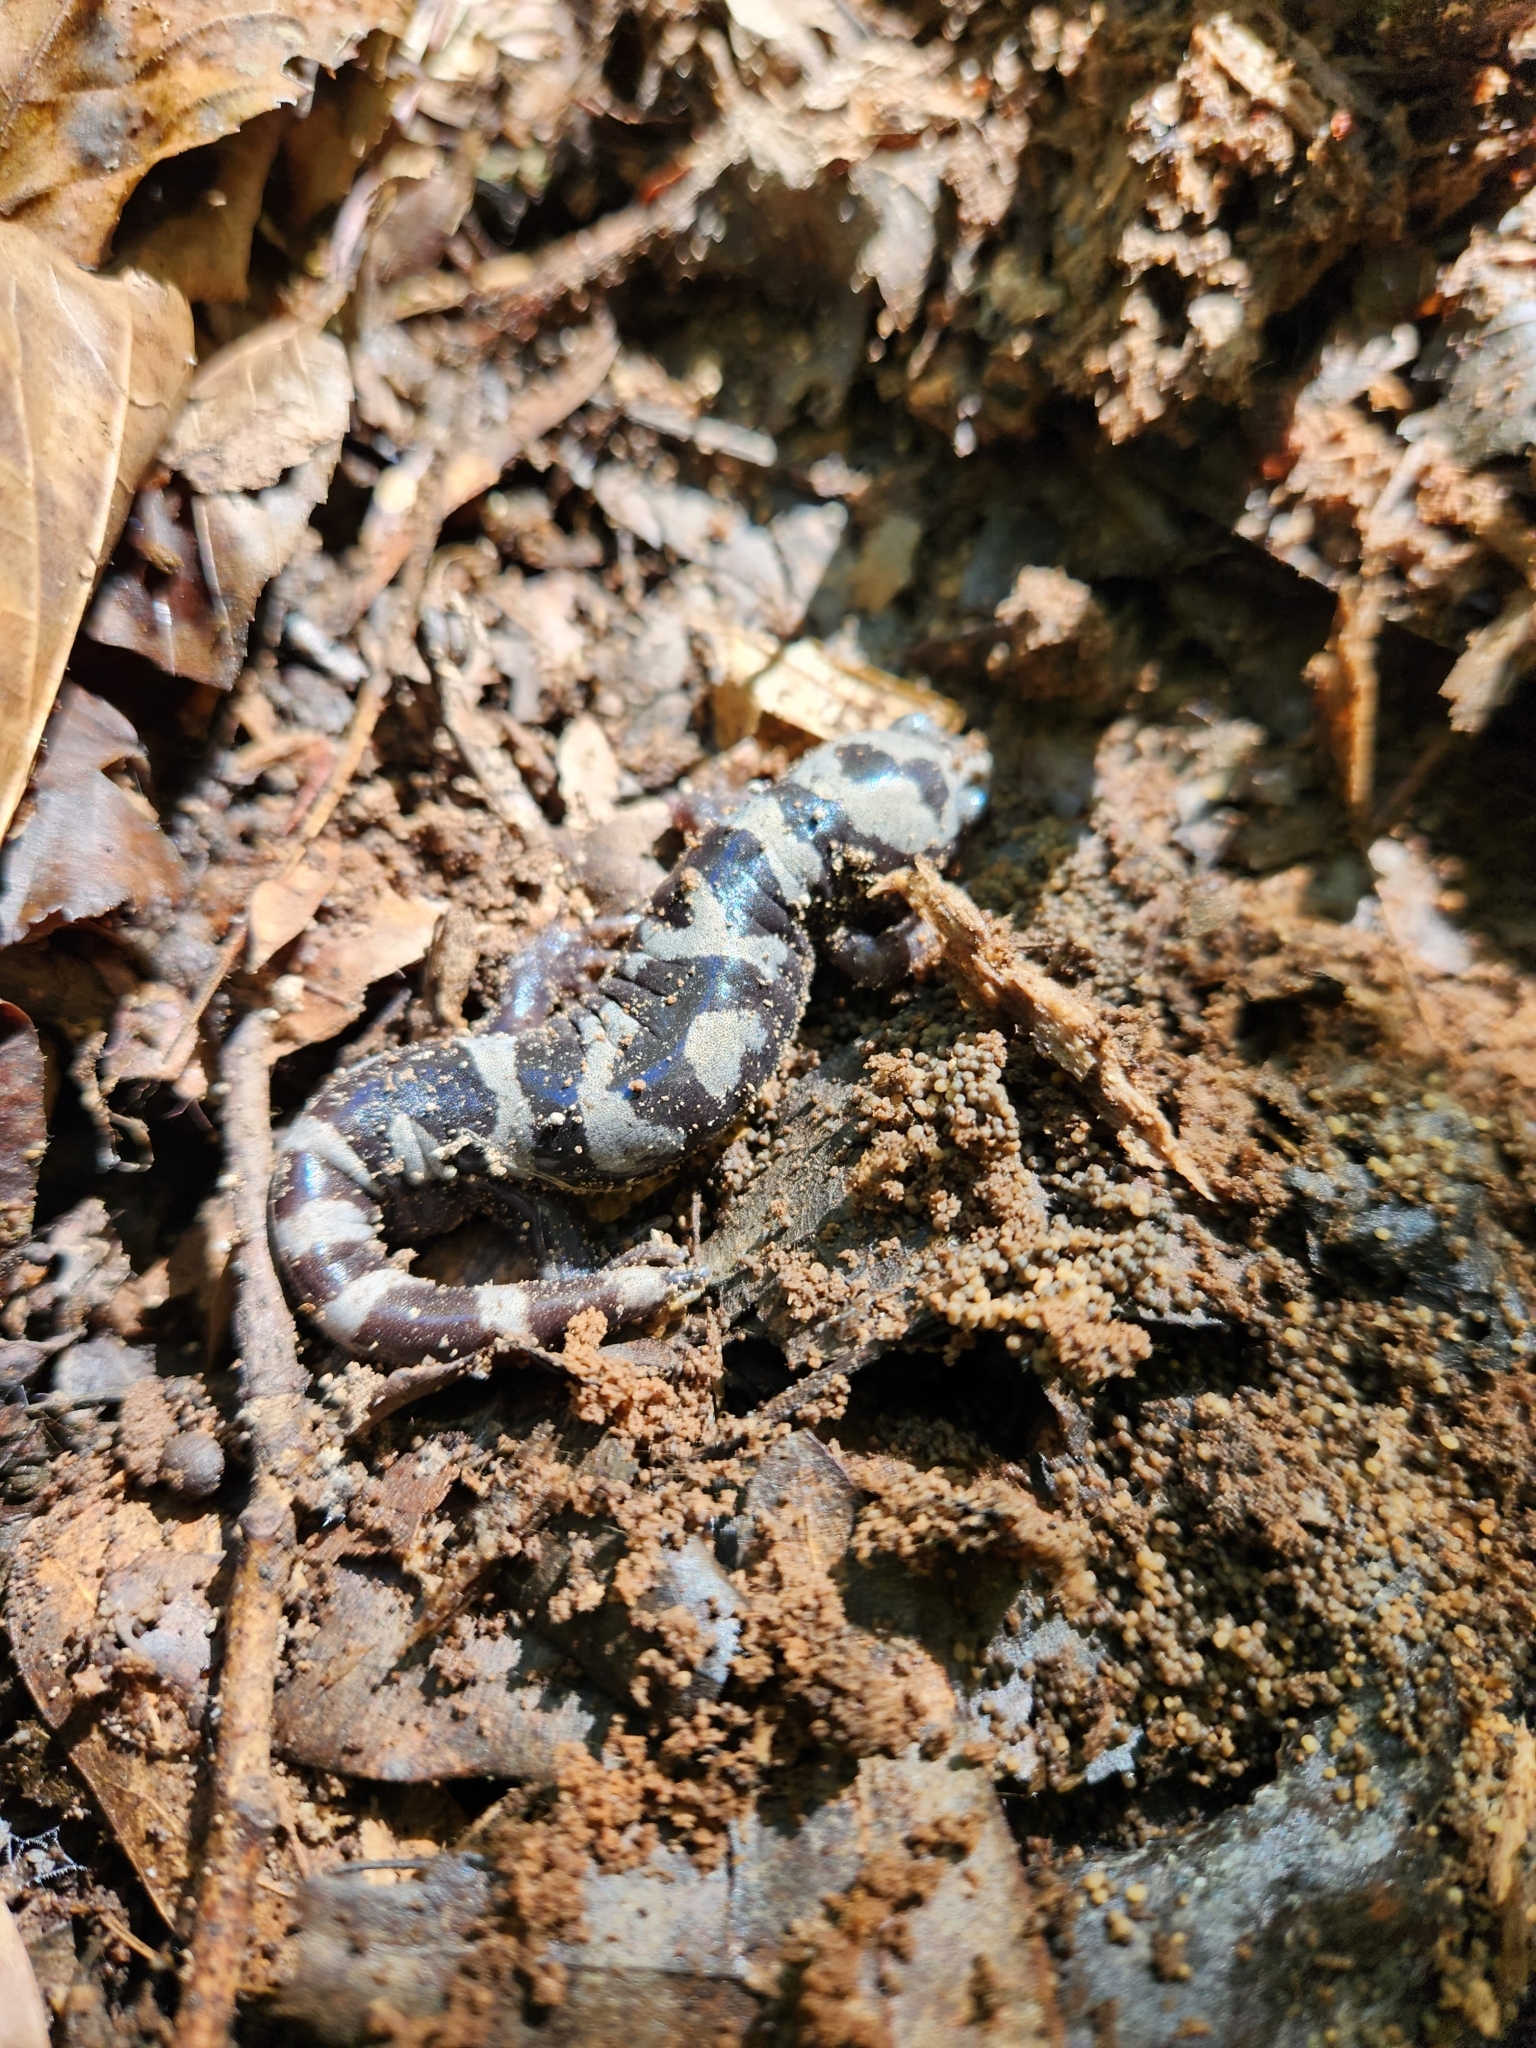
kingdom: Animalia
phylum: Chordata
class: Amphibia
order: Caudata
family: Ambystomatidae
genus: Ambystoma
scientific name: Ambystoma opacum
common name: Marbled salamander
